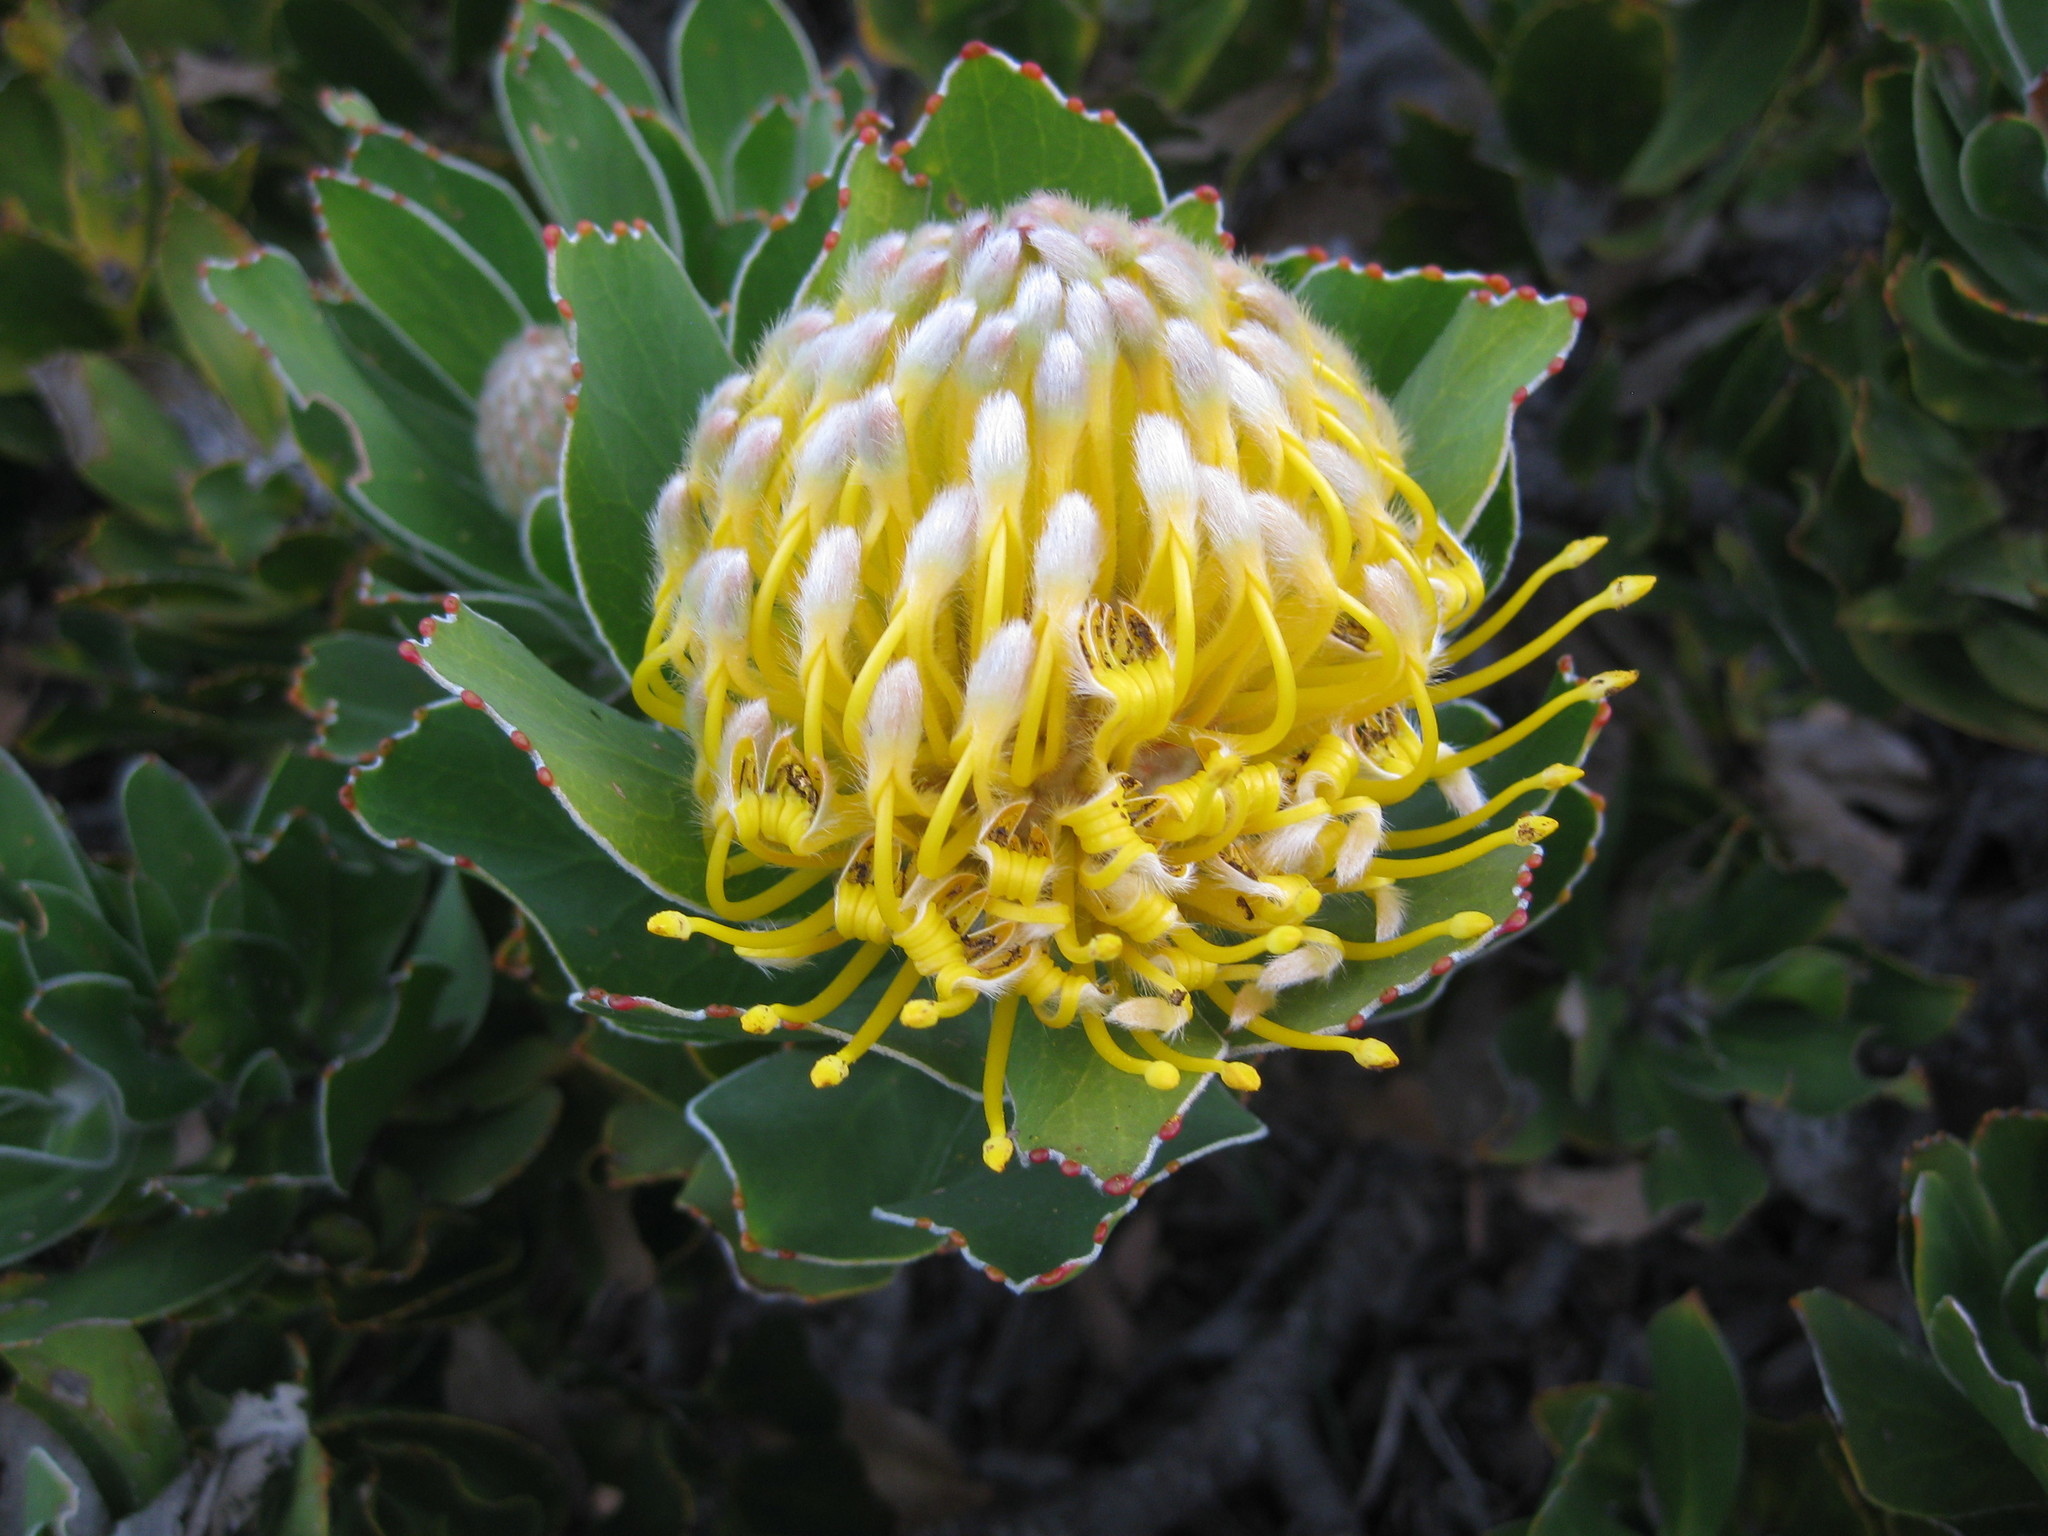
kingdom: Plantae
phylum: Tracheophyta
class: Magnoliopsida
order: Proteales
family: Proteaceae
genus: Leucospermum
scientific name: Leucospermum conocarpodendron
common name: Tree pincushion
